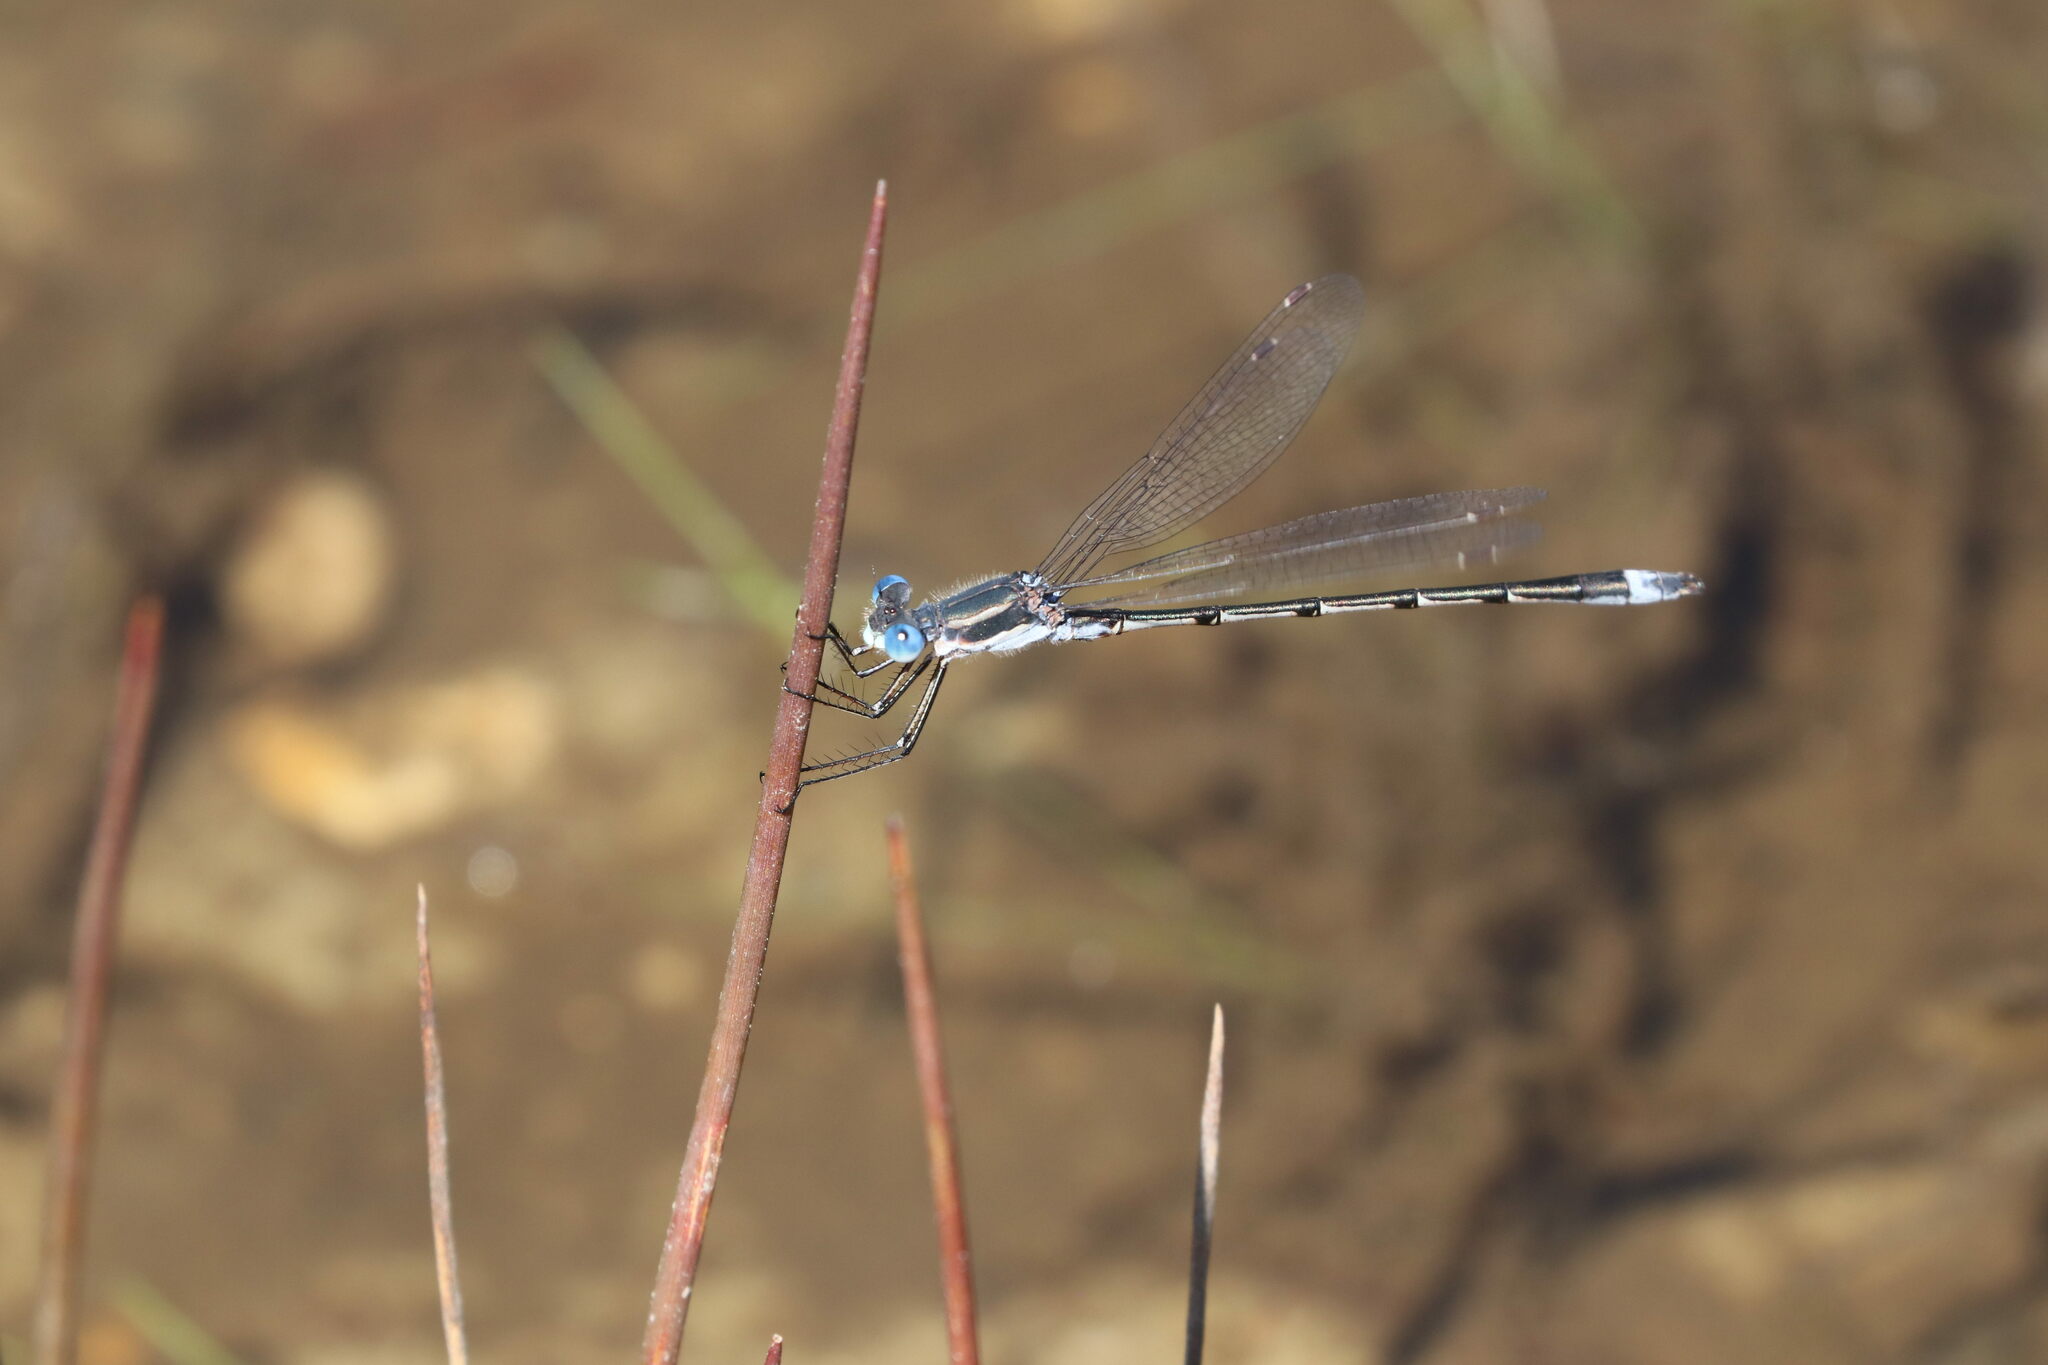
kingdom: Animalia
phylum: Arthropoda
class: Insecta
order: Odonata
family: Lestidae
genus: Lestes
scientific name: Lestes australis
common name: Southern spreadwing
